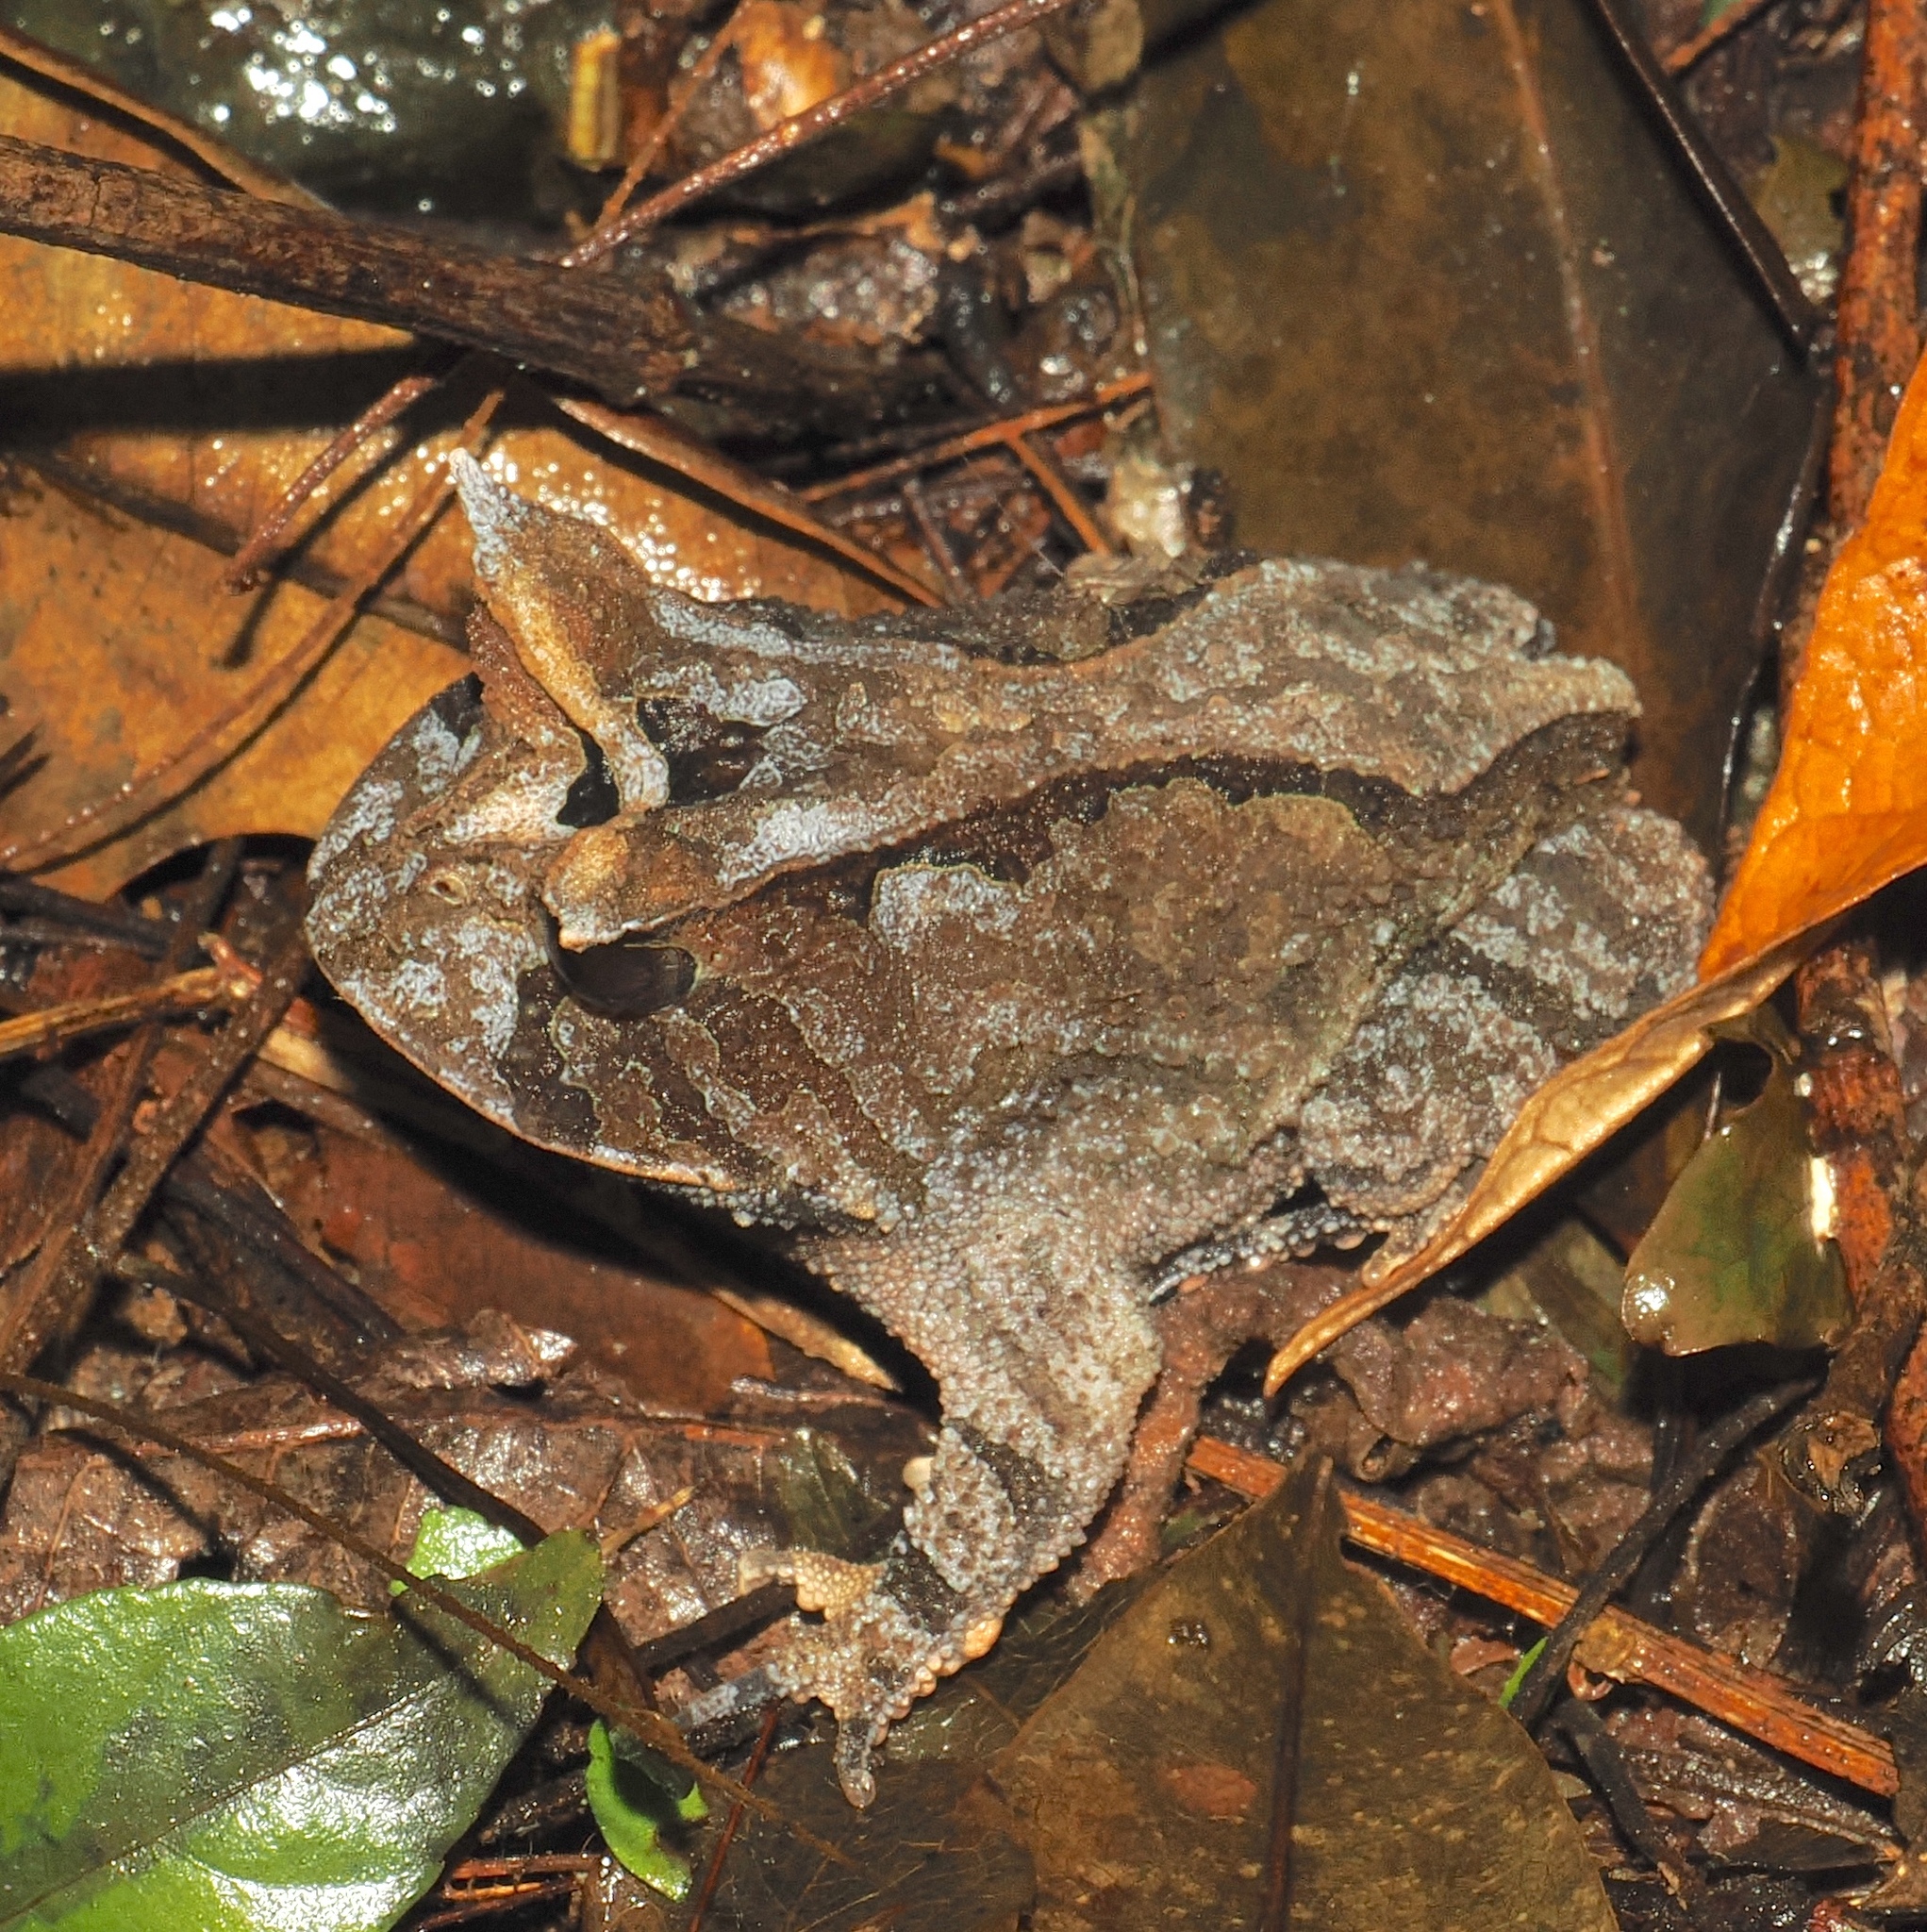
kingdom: Animalia
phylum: Chordata
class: Amphibia
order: Anura
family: Odontophrynidae
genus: Proceratophrys
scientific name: Proceratophrys boiei
